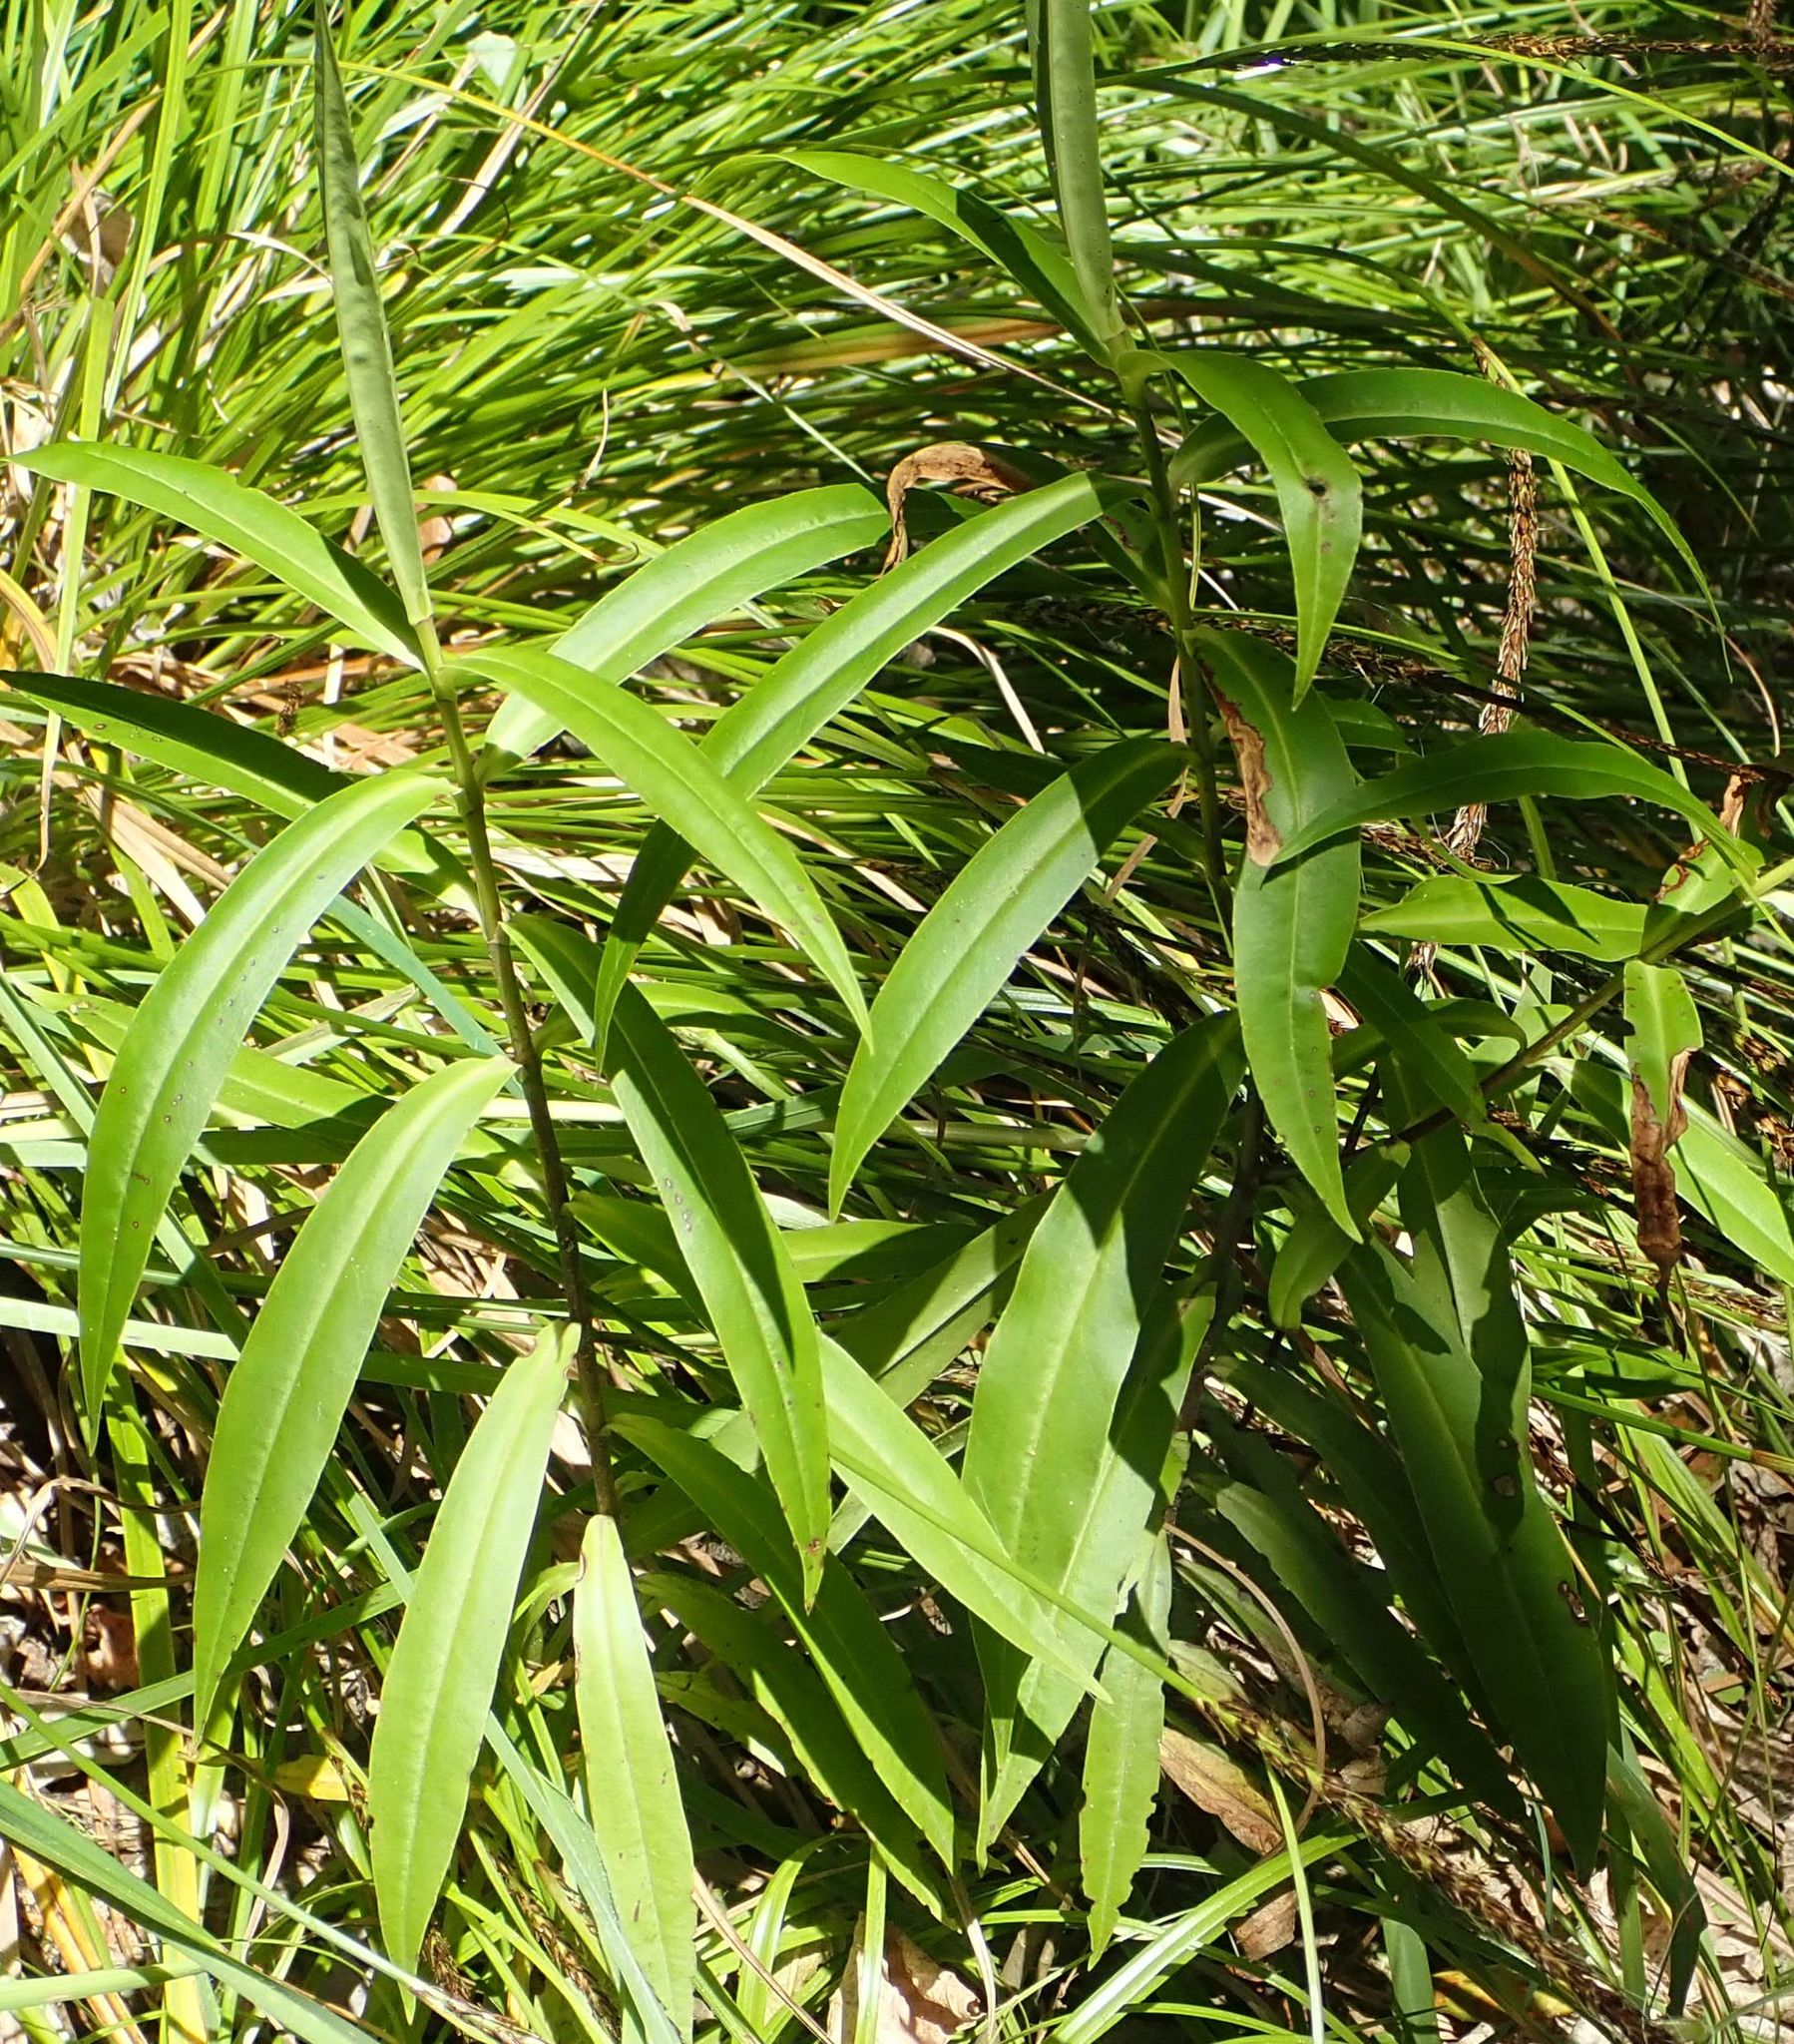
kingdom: Plantae
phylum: Tracheophyta
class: Magnoliopsida
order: Lamiales
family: Plantaginaceae
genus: Veronica
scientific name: Veronica salicifolia
